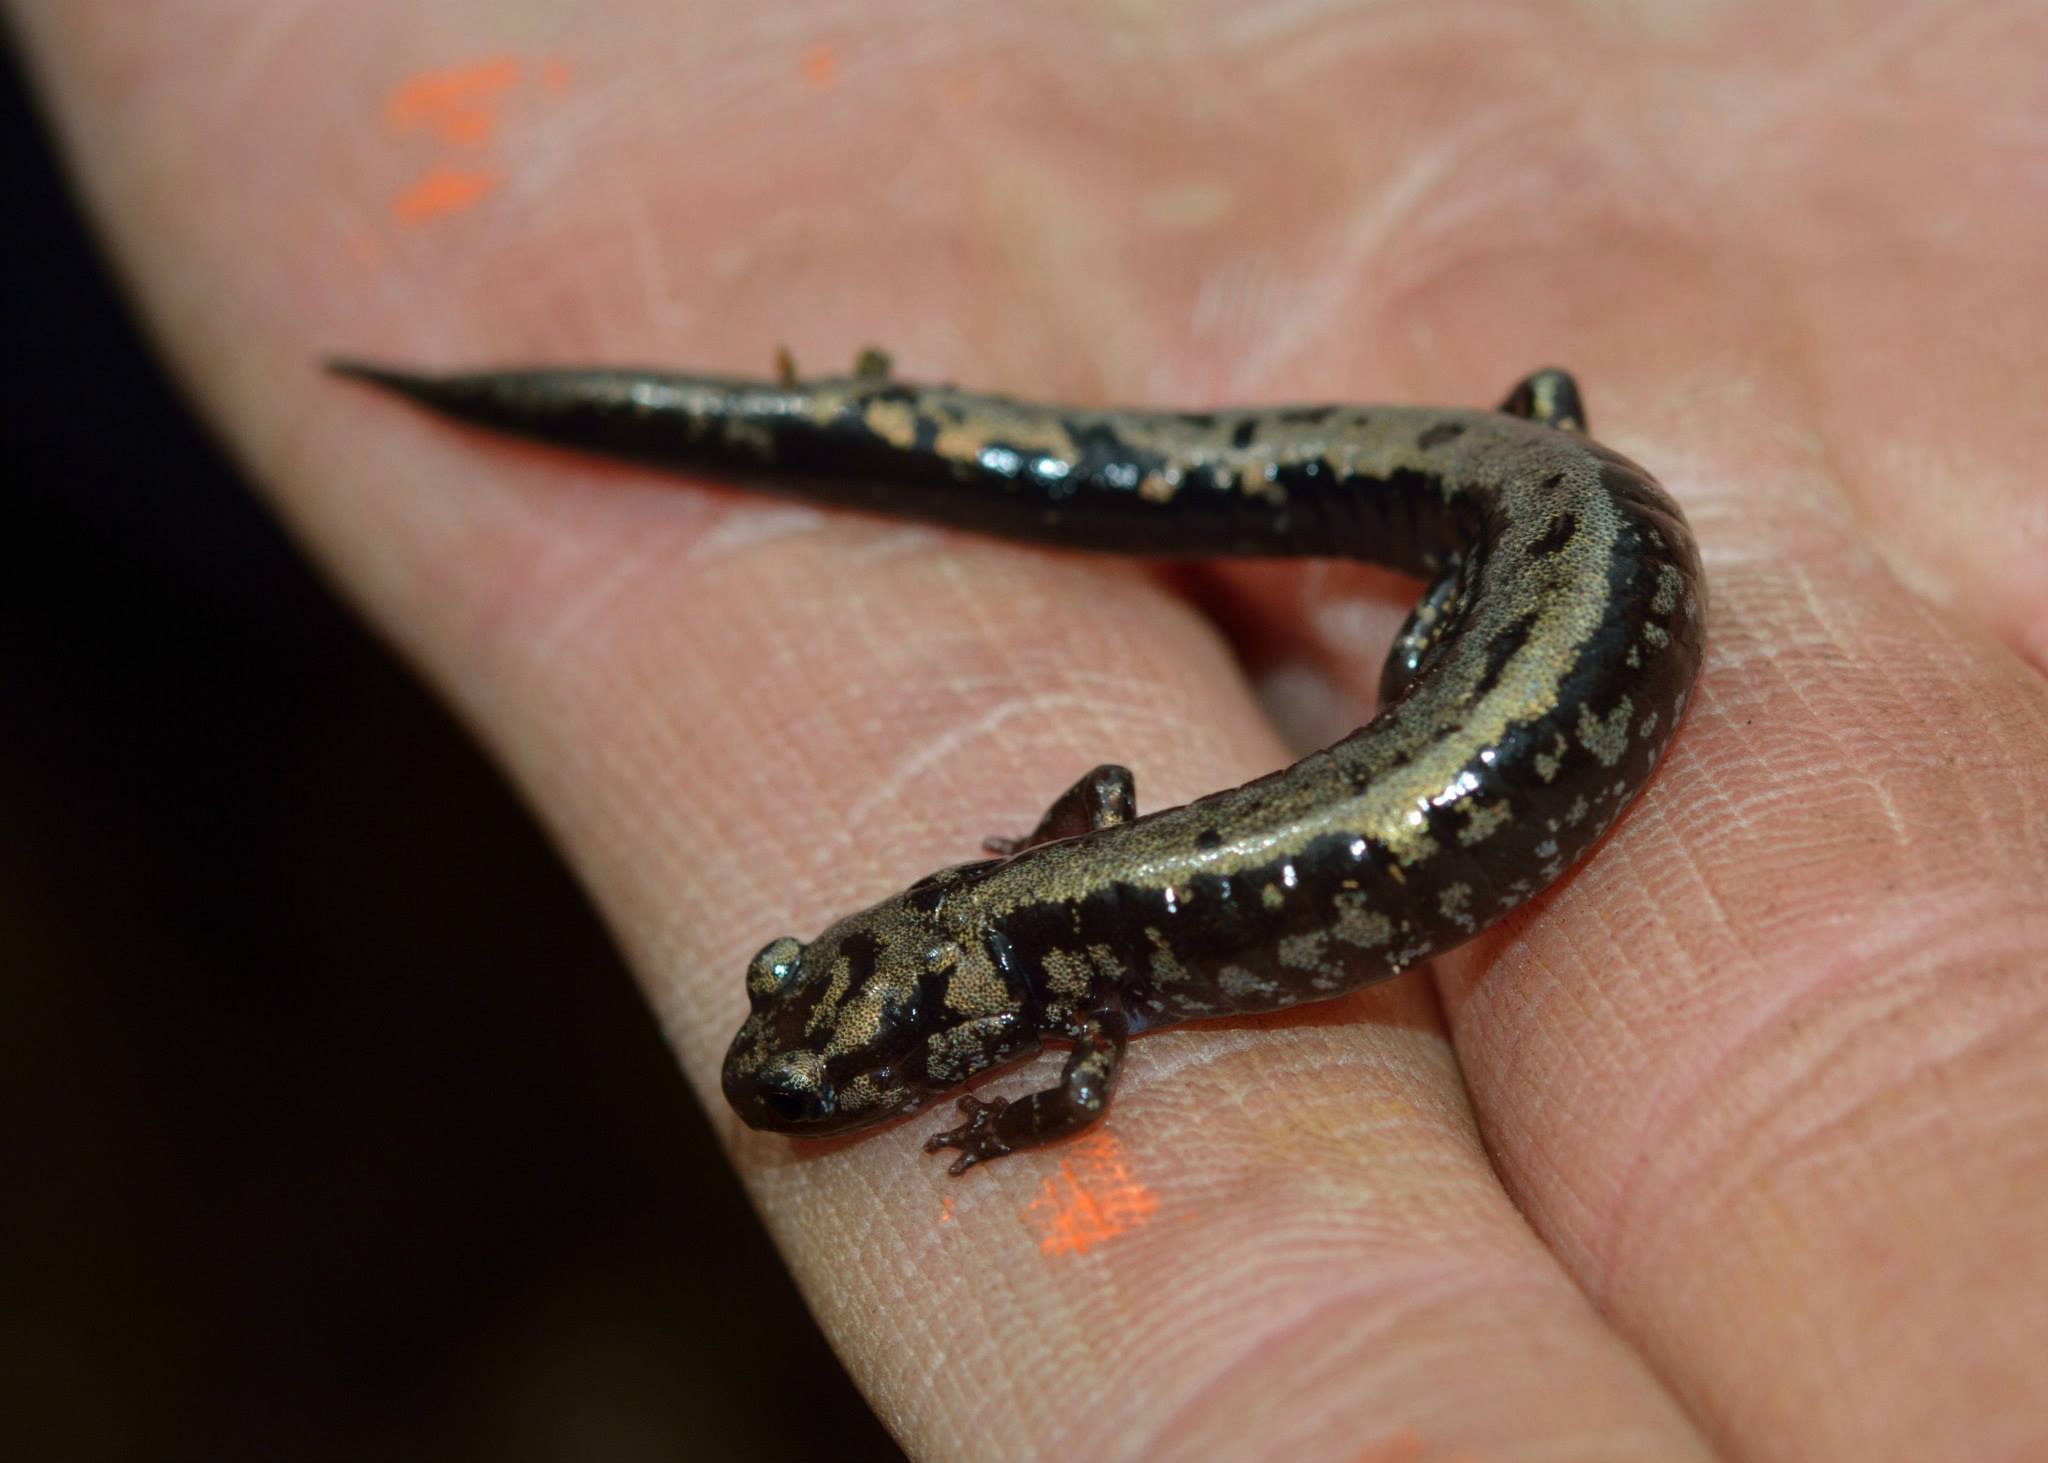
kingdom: Animalia
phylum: Chordata
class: Amphibia
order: Caudata
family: Plethodontidae
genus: Plethodon
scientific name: Plethodon welleri
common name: Weller's salamander
